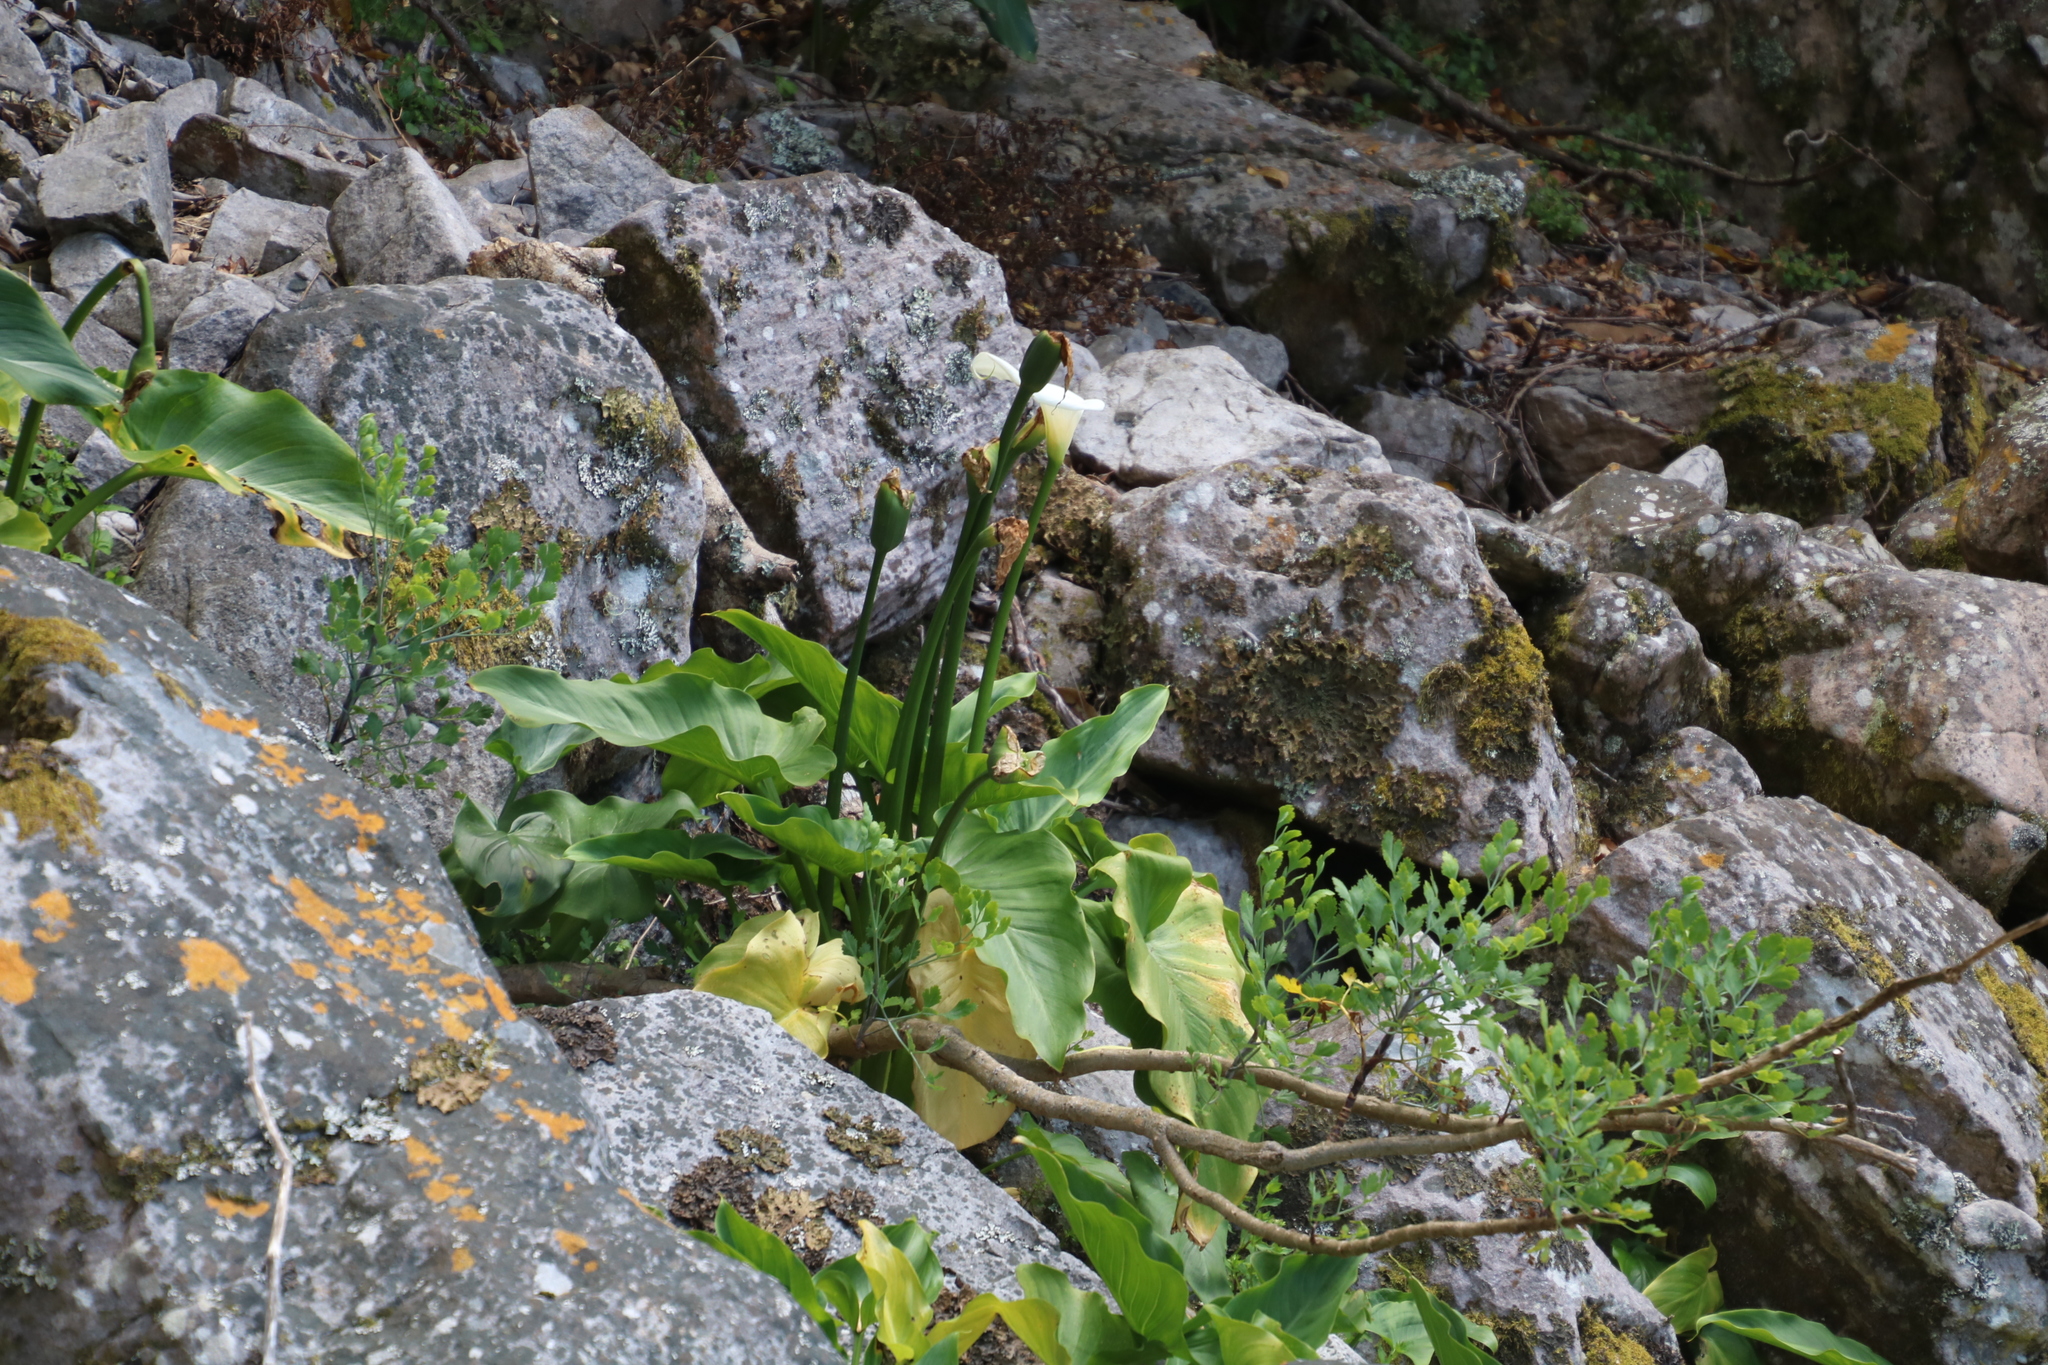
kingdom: Plantae
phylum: Tracheophyta
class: Liliopsida
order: Alismatales
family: Araceae
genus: Zantedeschia
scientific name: Zantedeschia aethiopica
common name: Altar-lily
